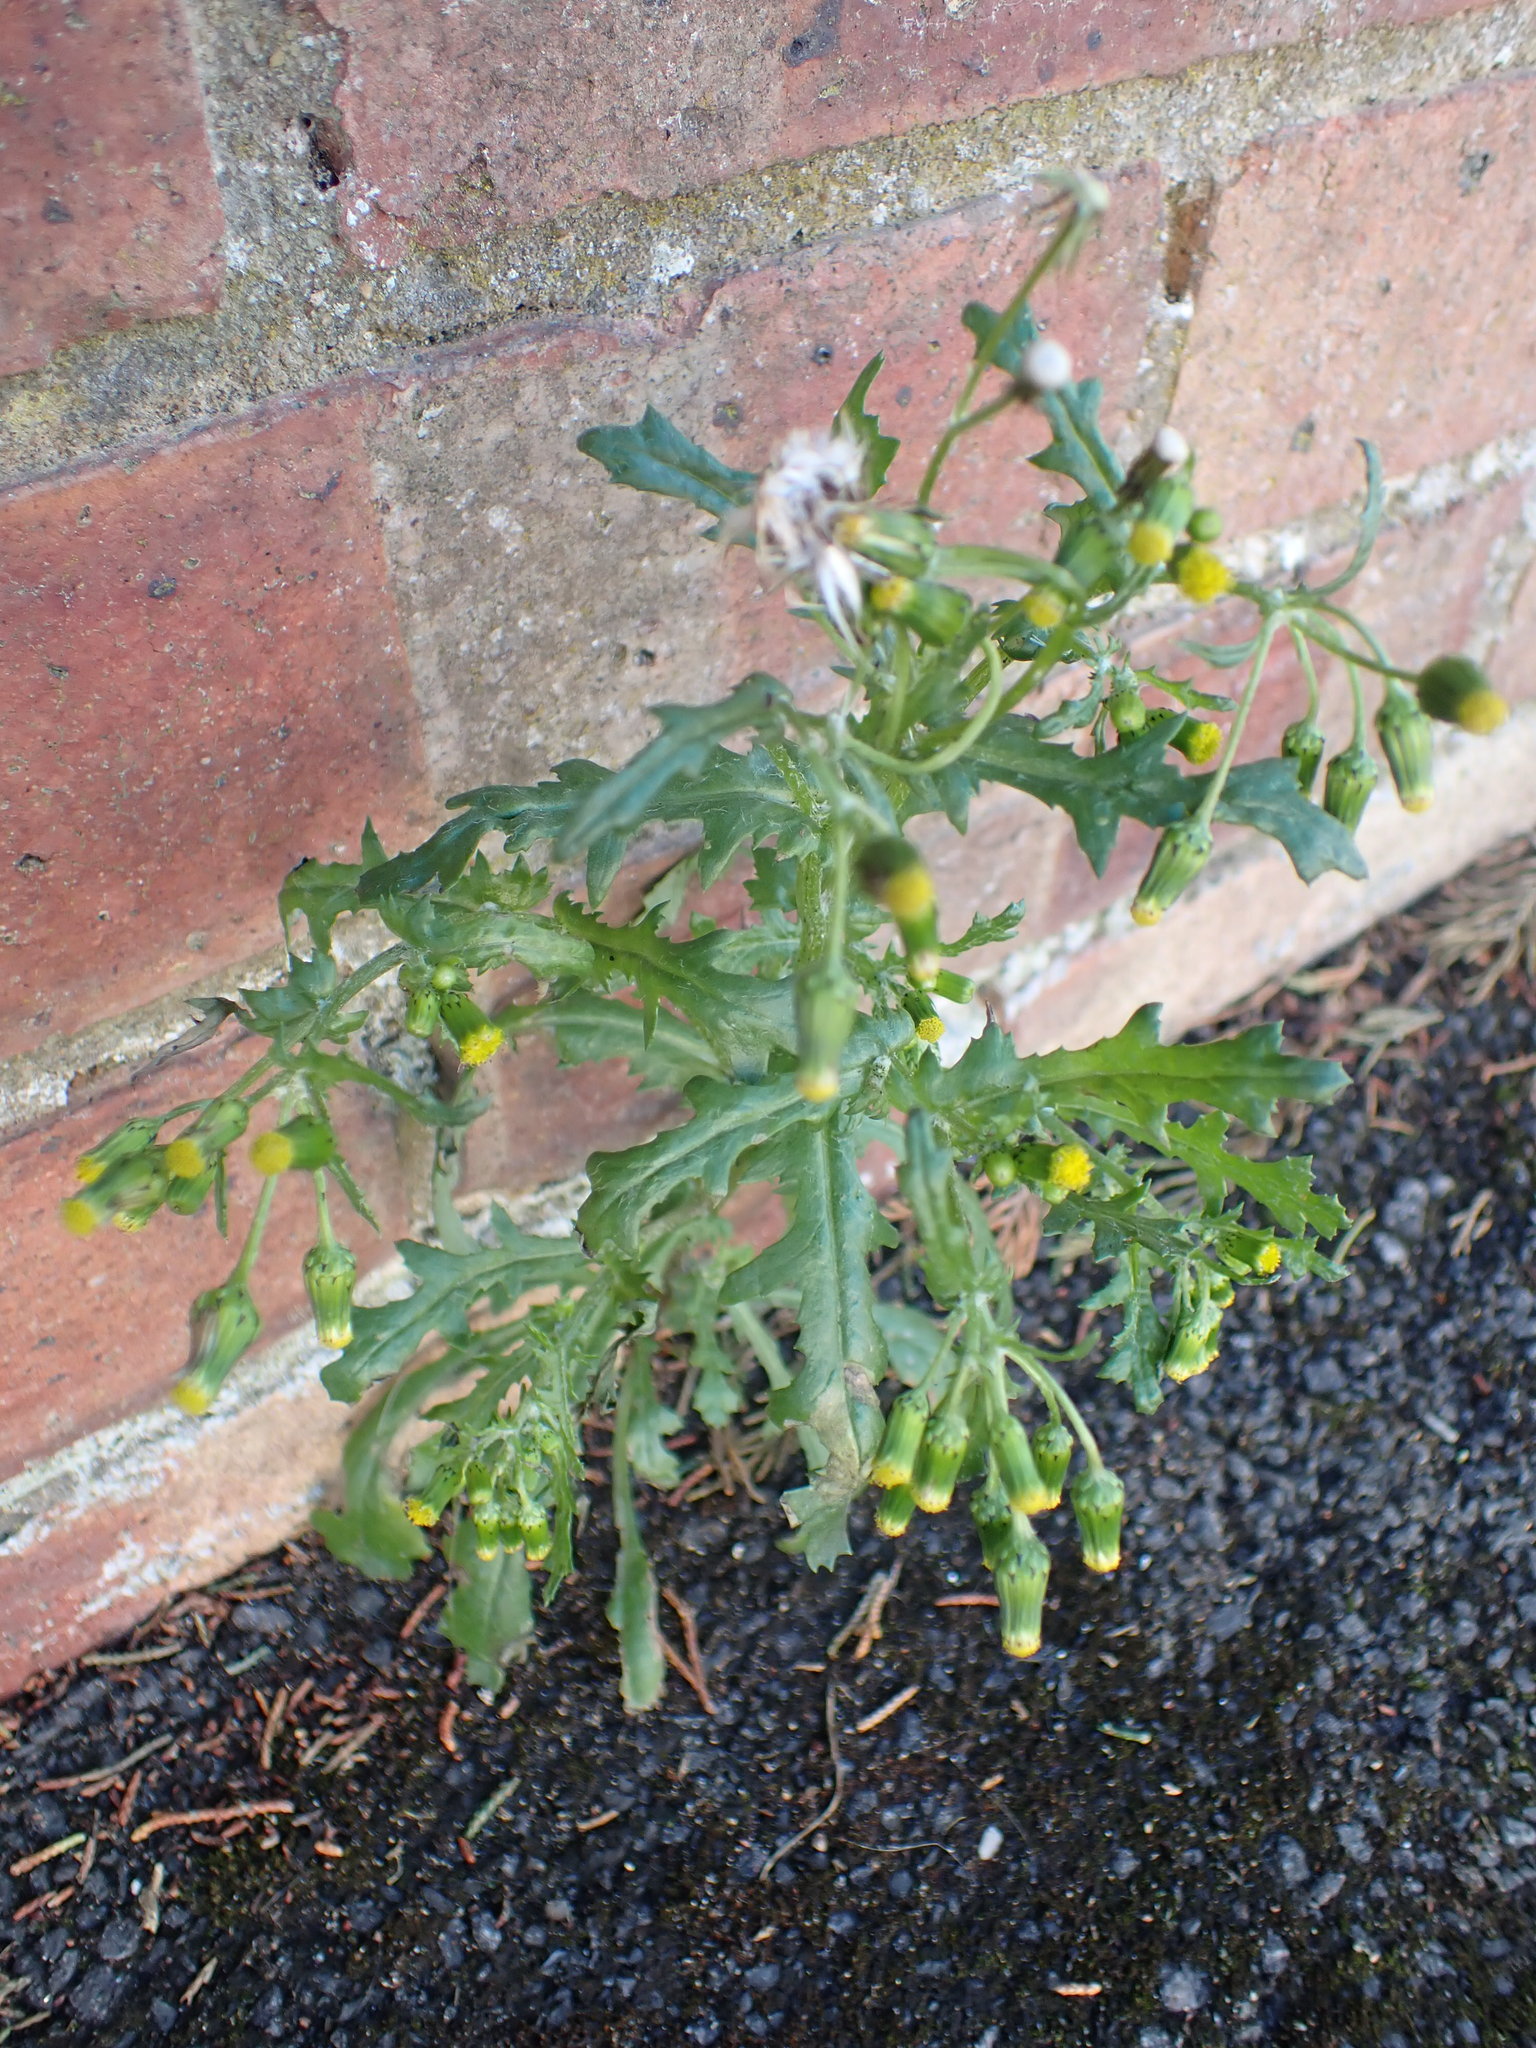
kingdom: Plantae
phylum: Tracheophyta
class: Magnoliopsida
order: Asterales
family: Asteraceae
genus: Senecio
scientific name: Senecio vulgaris
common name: Old-man-in-the-spring
